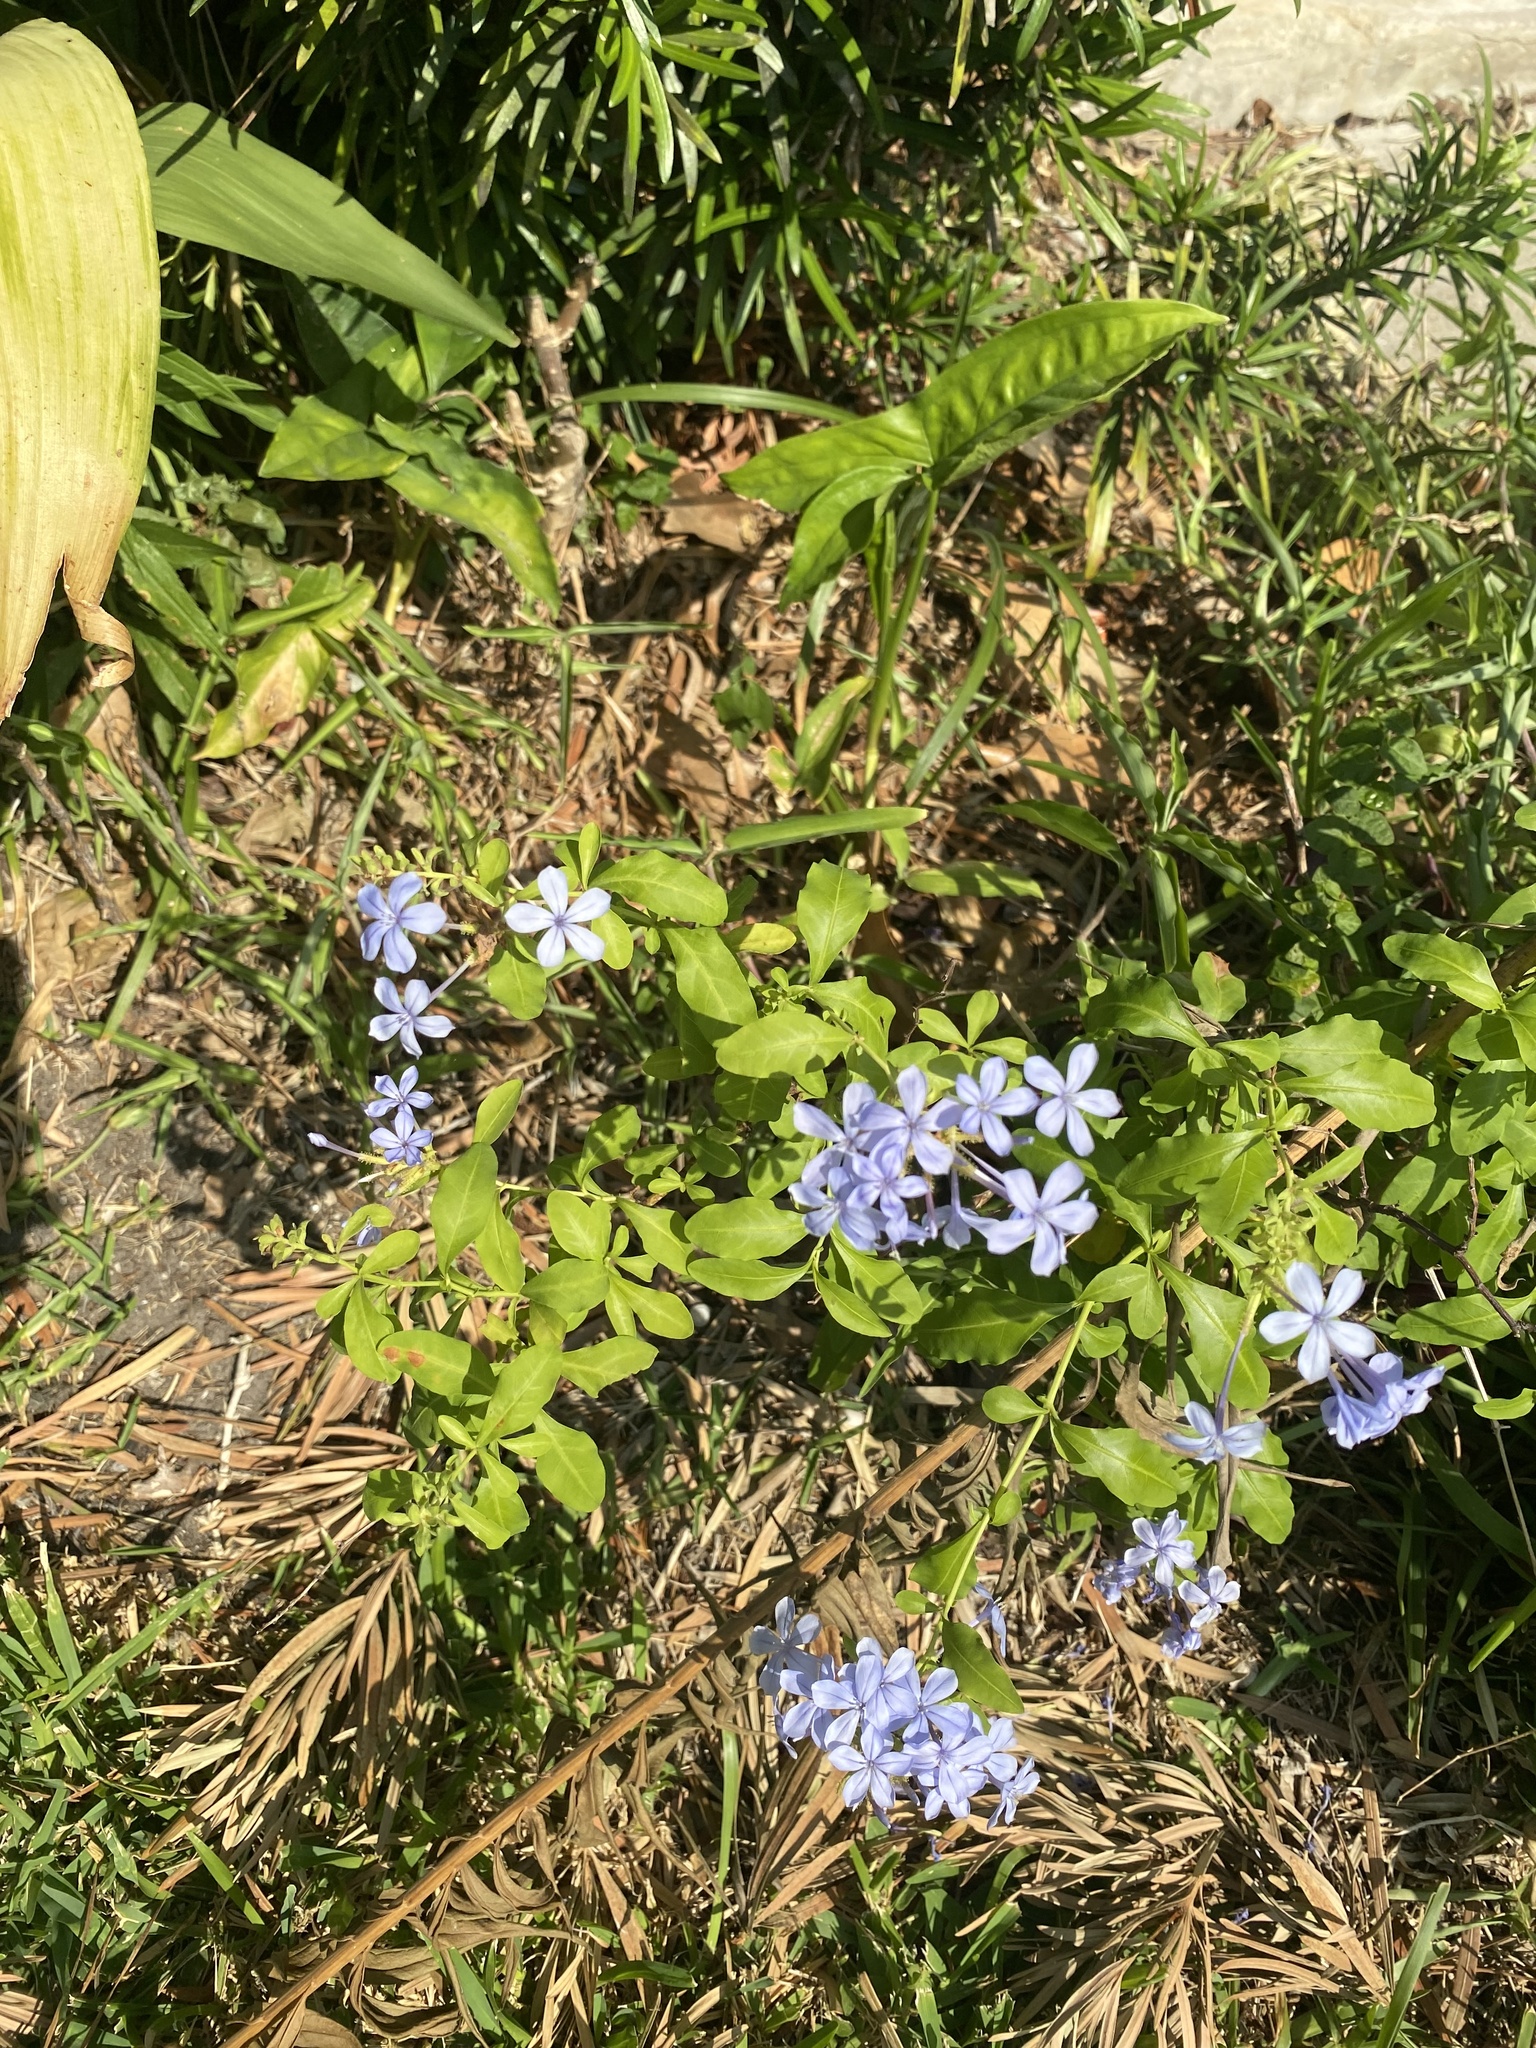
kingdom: Plantae
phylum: Tracheophyta
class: Magnoliopsida
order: Caryophyllales
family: Plumbaginaceae
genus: Plumbago
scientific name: Plumbago auriculata
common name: Cape leadwort
